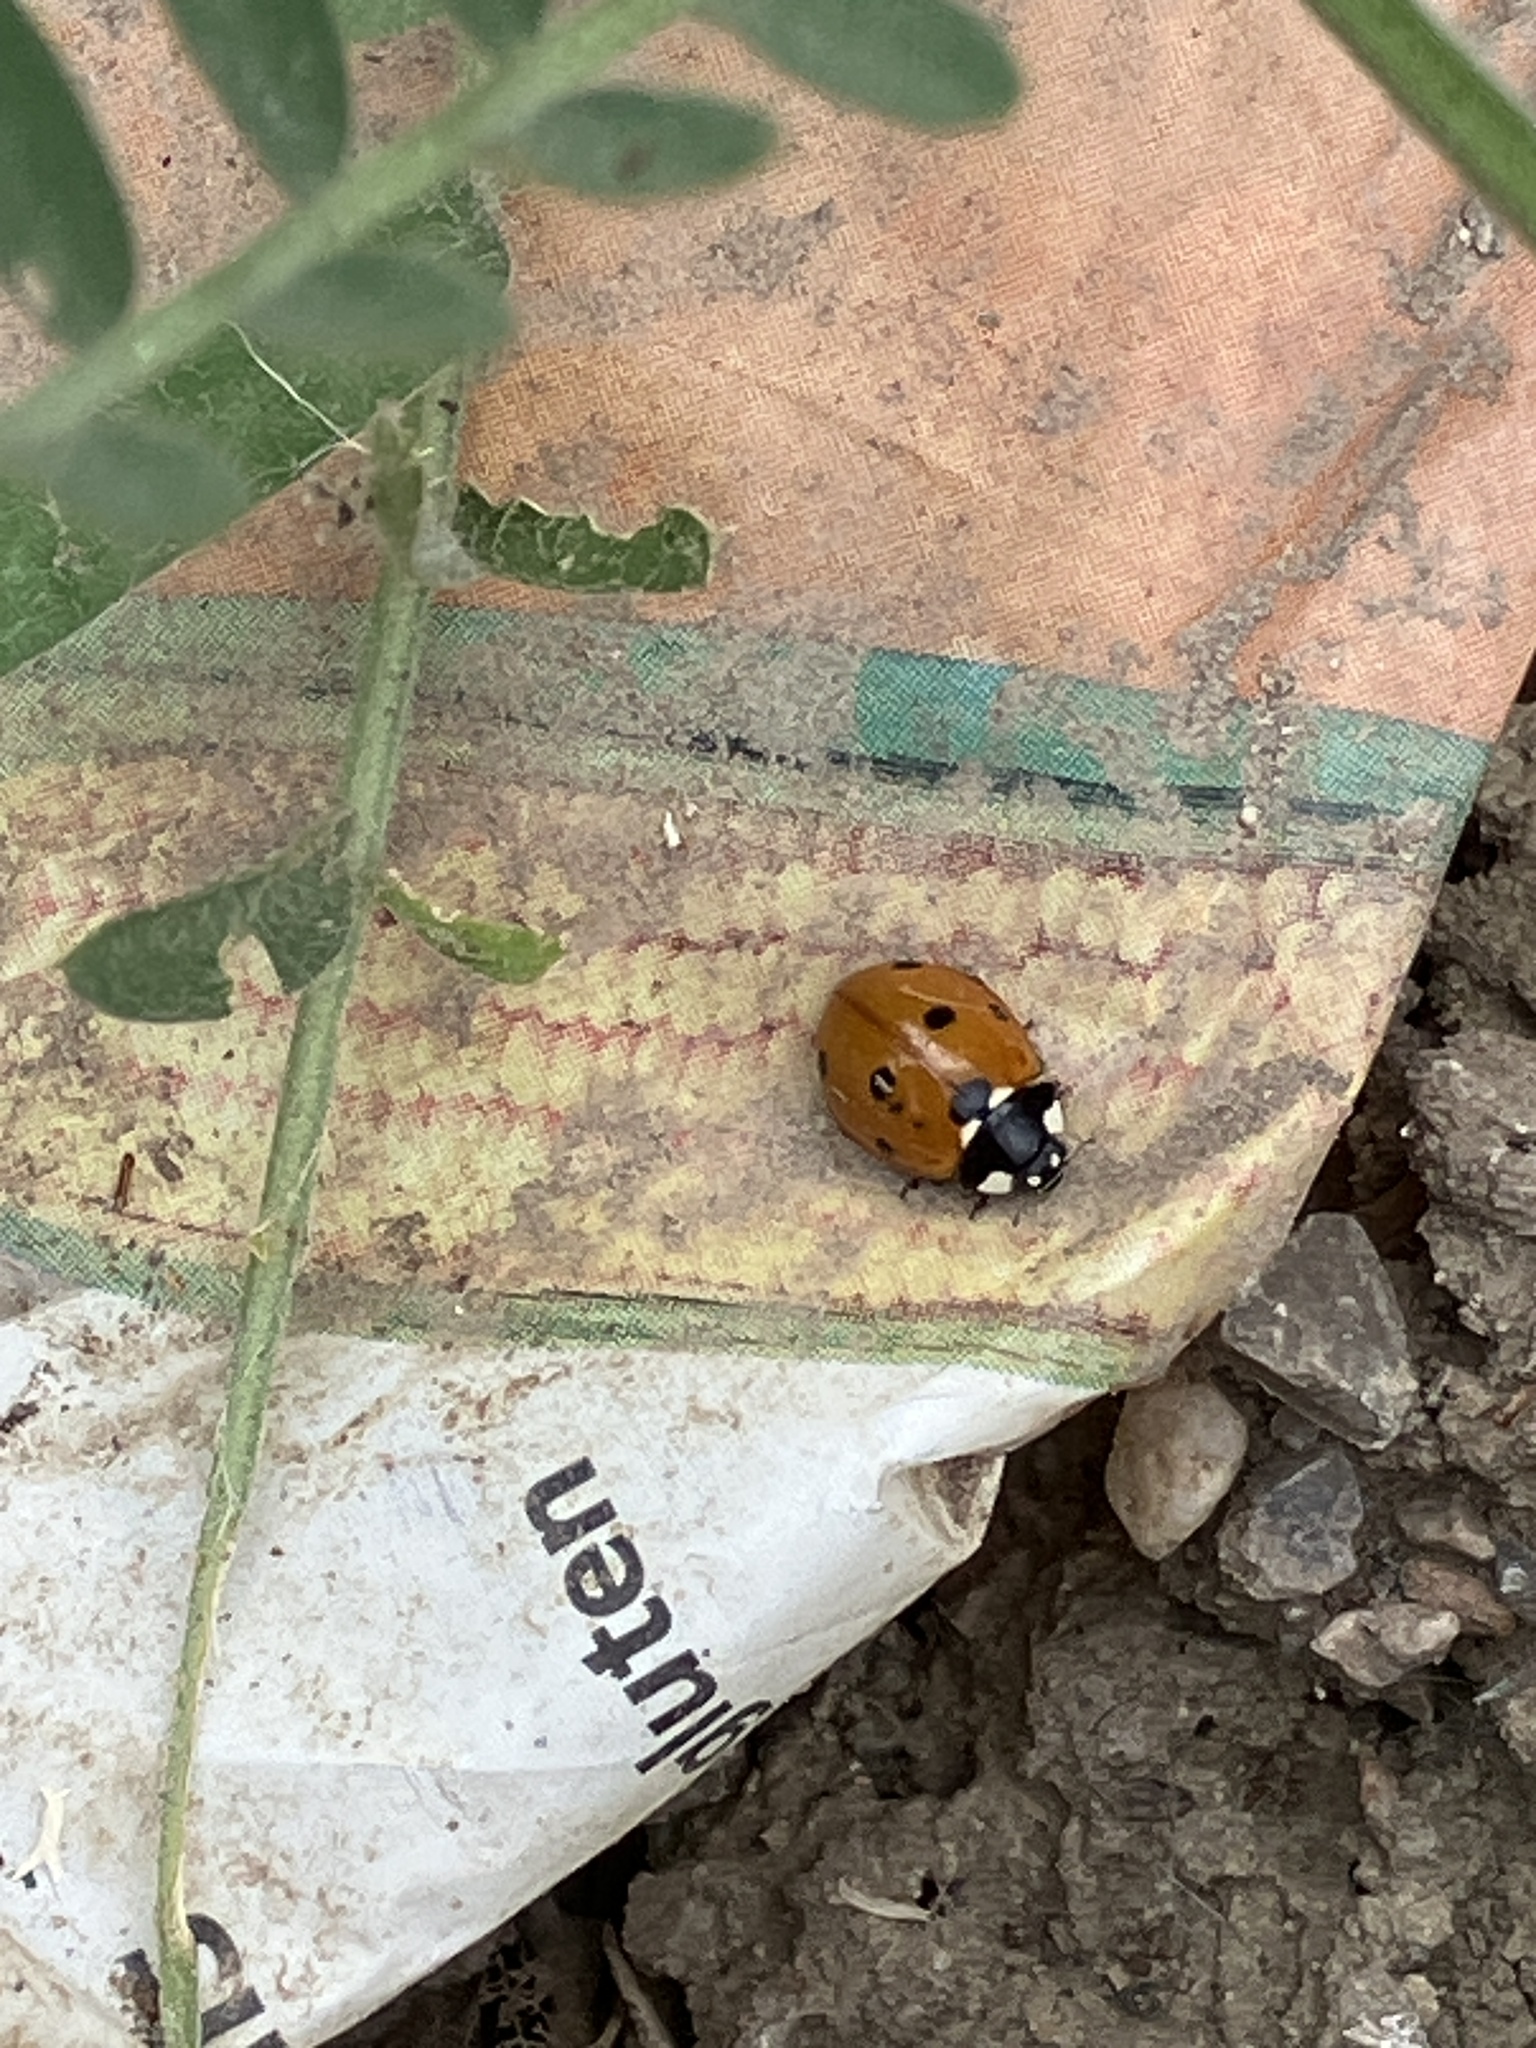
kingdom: Animalia
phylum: Arthropoda
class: Insecta
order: Coleoptera
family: Coccinellidae
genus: Coccinella
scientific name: Coccinella septempunctata
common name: Sevenspotted lady beetle
